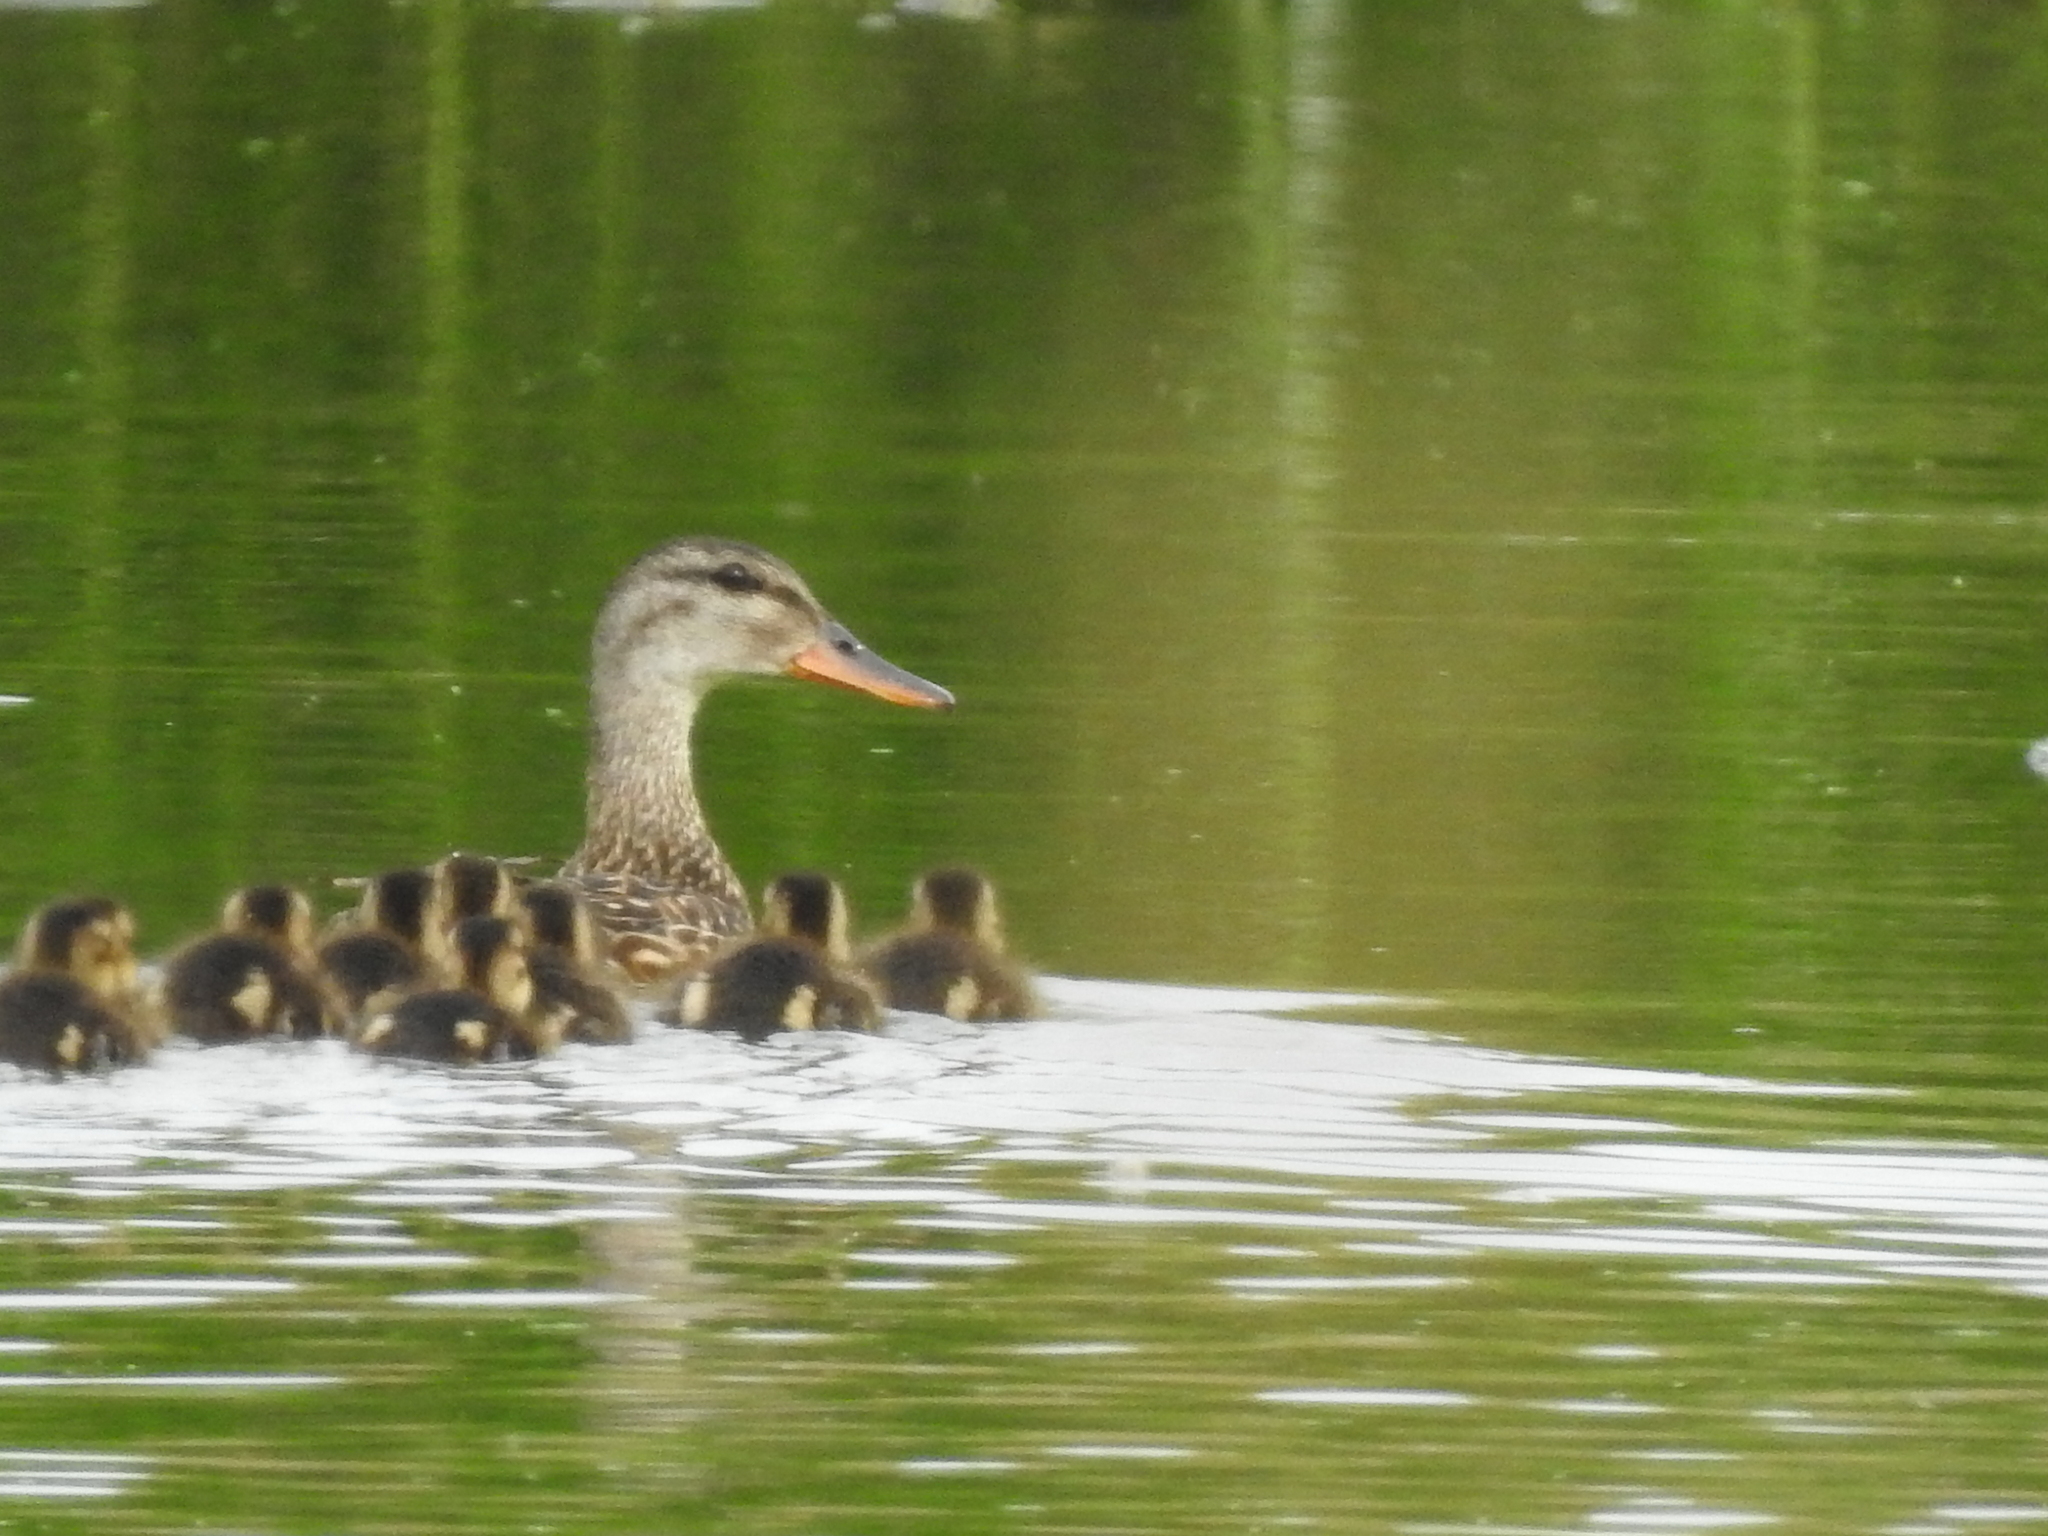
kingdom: Animalia
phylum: Chordata
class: Aves
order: Anseriformes
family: Anatidae
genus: Mareca
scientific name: Mareca strepera
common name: Gadwall
